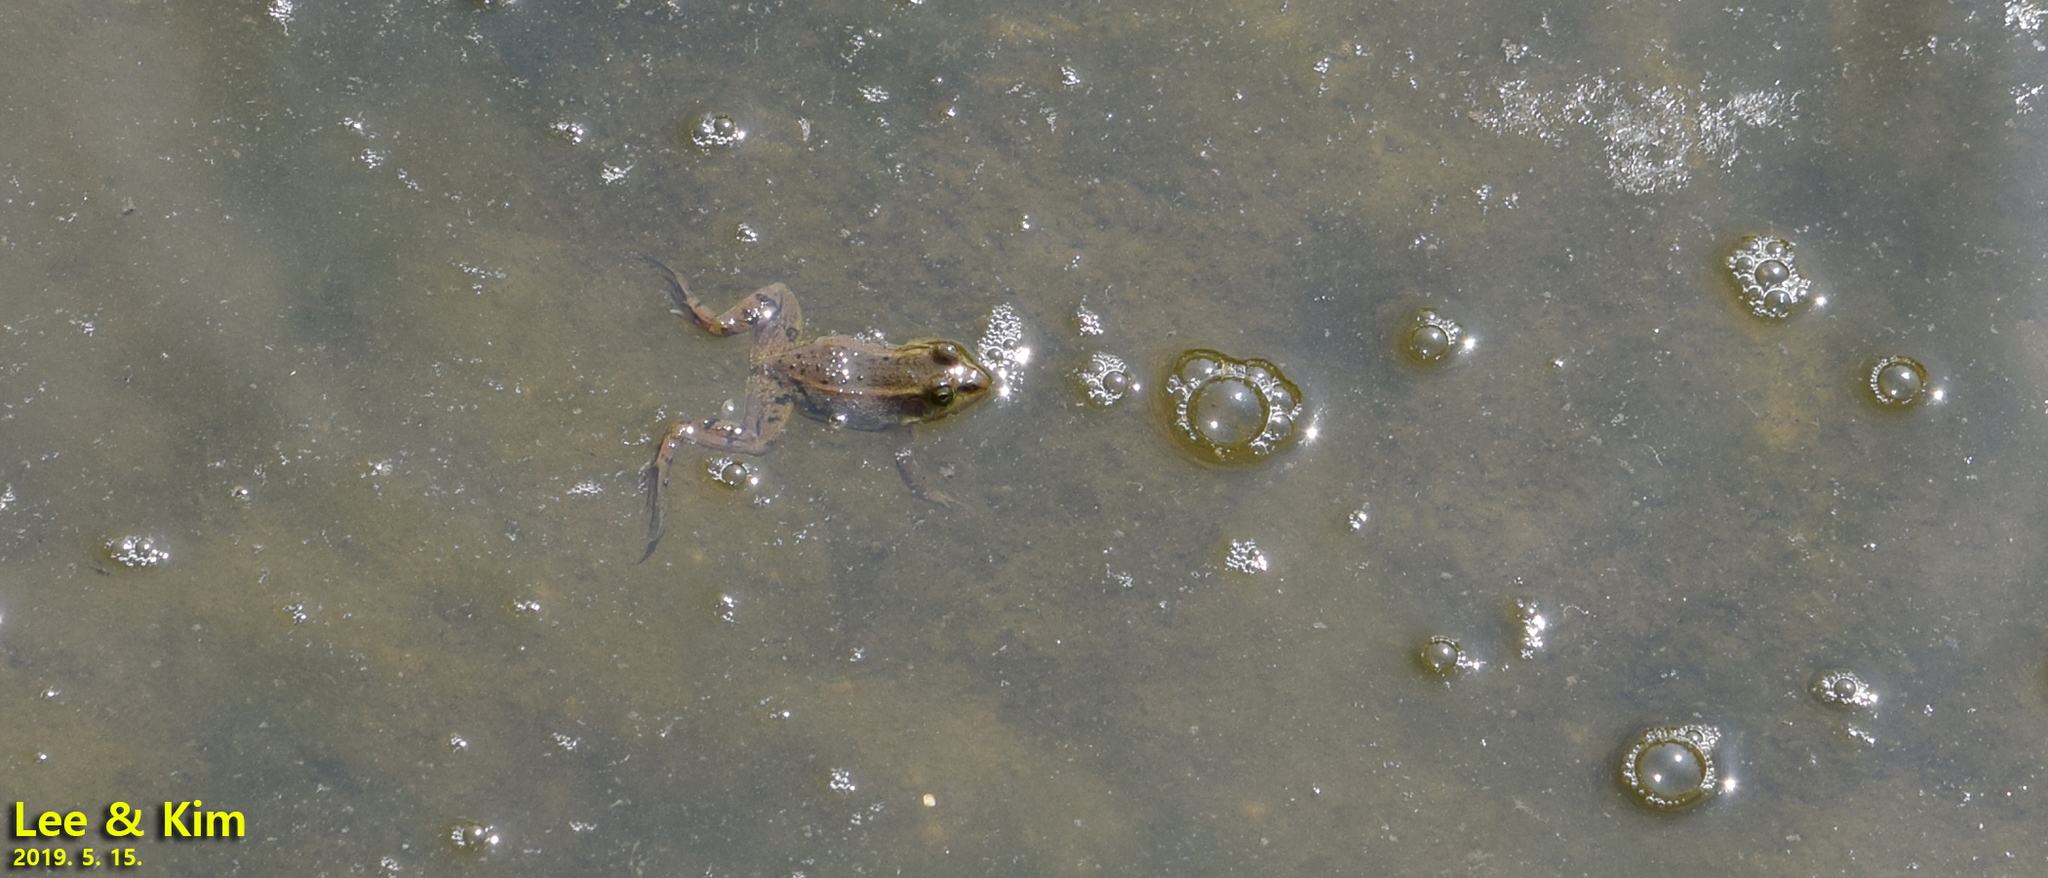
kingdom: Animalia
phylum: Chordata
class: Amphibia
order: Anura
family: Ranidae
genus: Pelophylax
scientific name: Pelophylax chosenicus
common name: Gold-spotted pond frog
